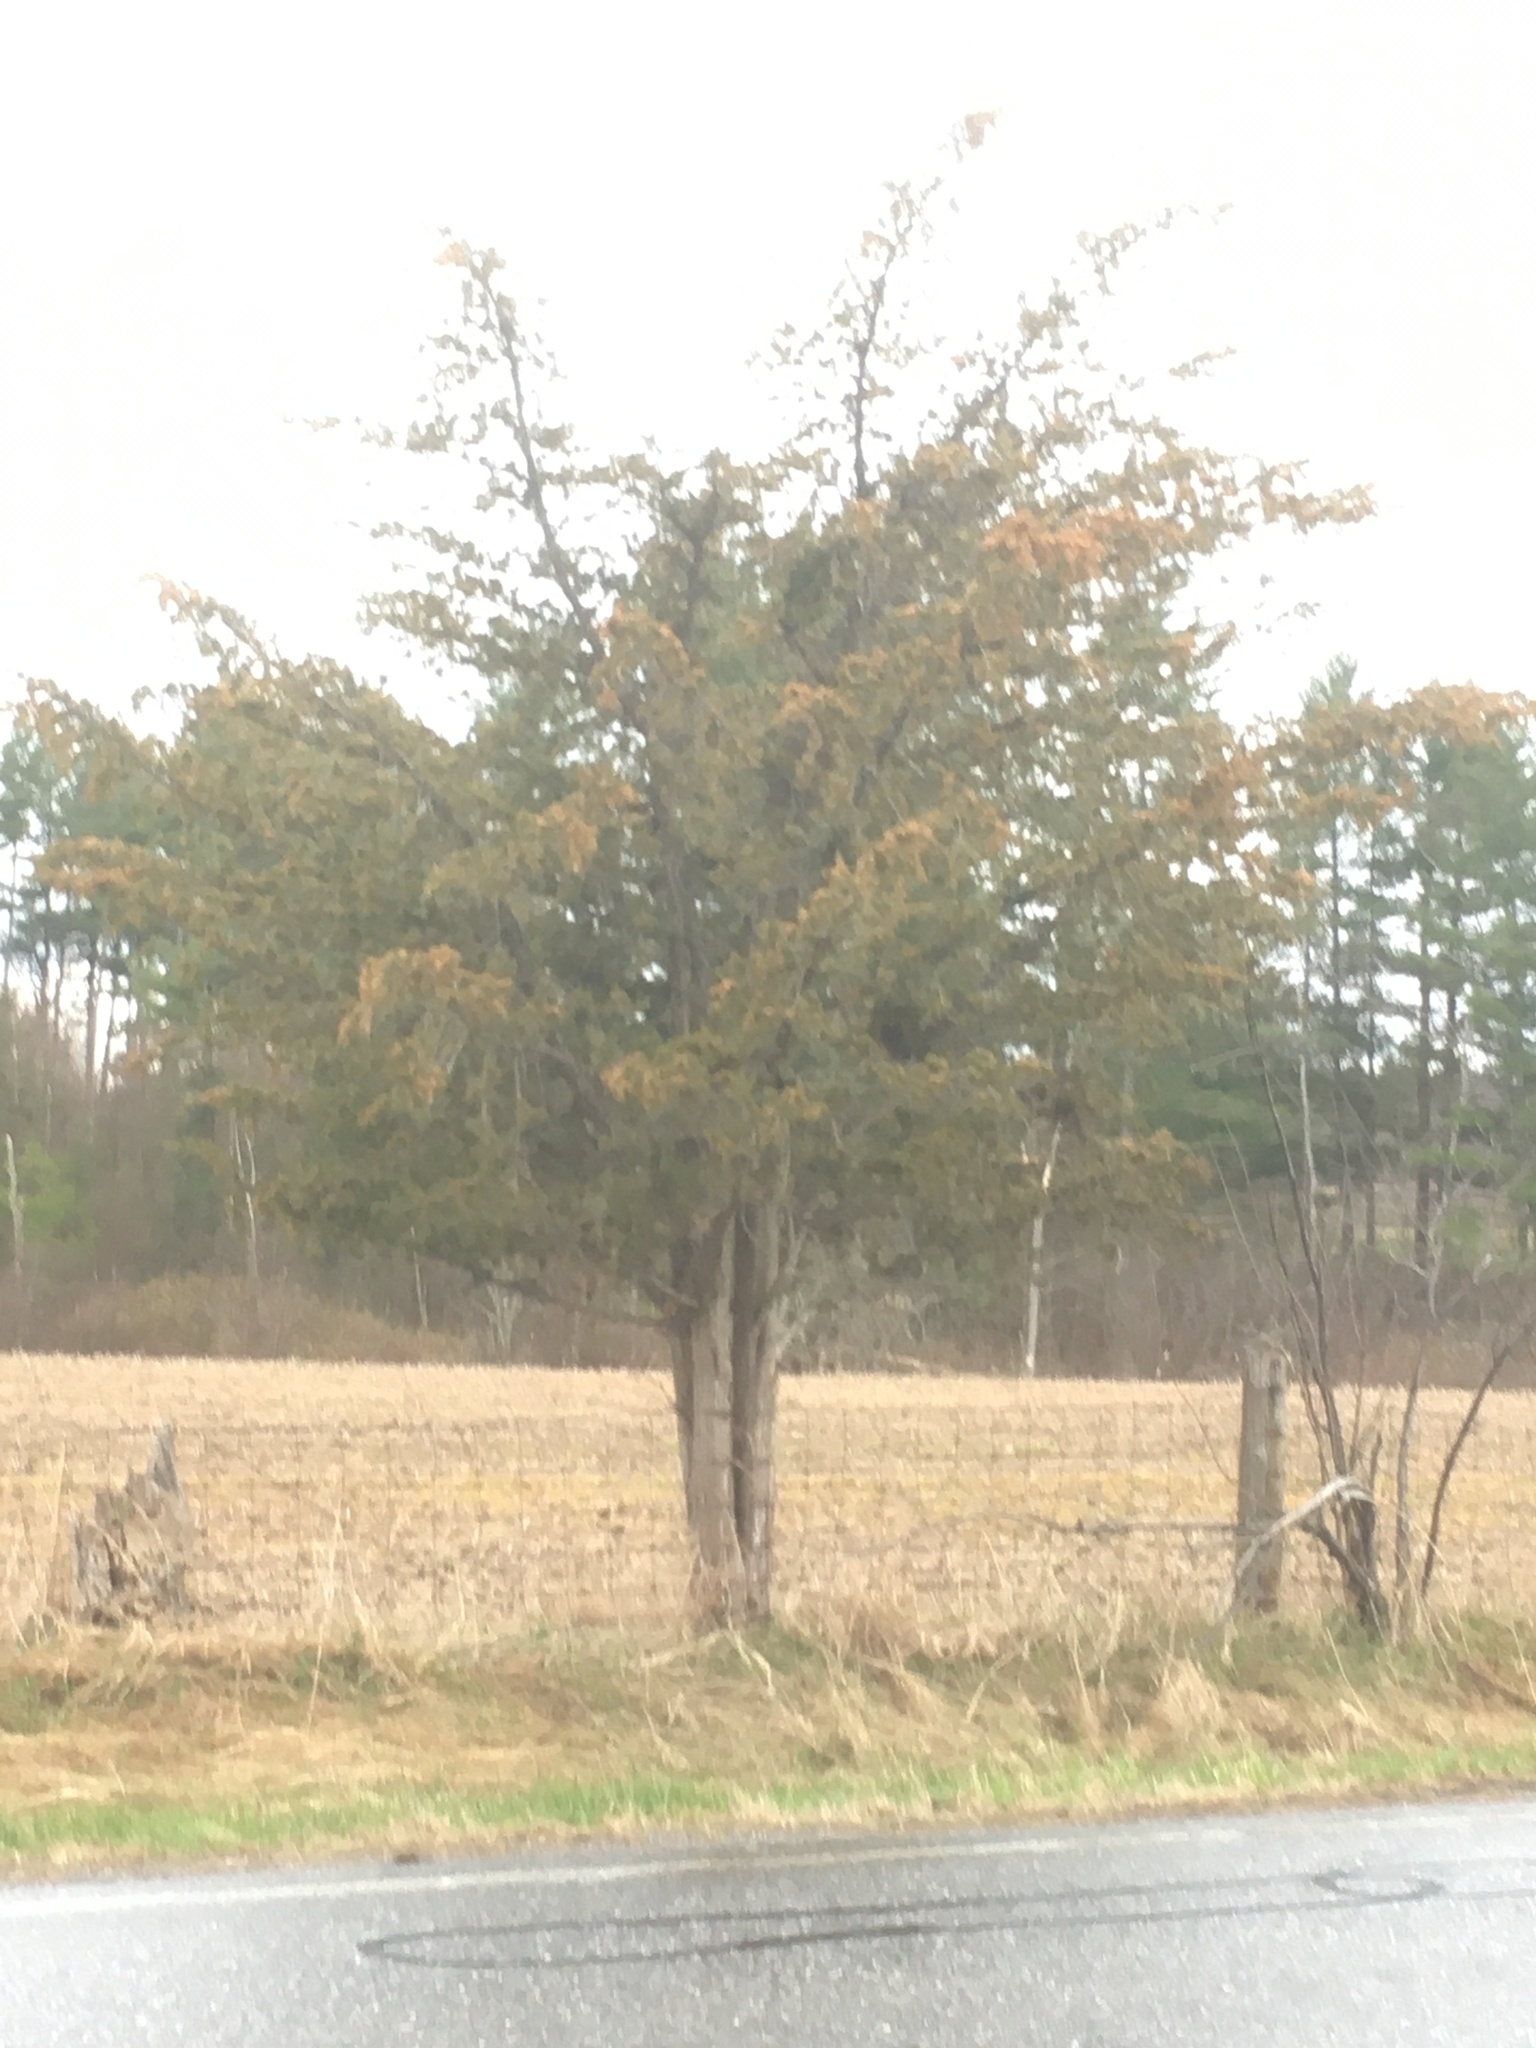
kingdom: Plantae
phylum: Tracheophyta
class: Pinopsida
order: Pinales
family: Cupressaceae
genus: Juniperus
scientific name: Juniperus virginiana
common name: Red juniper
